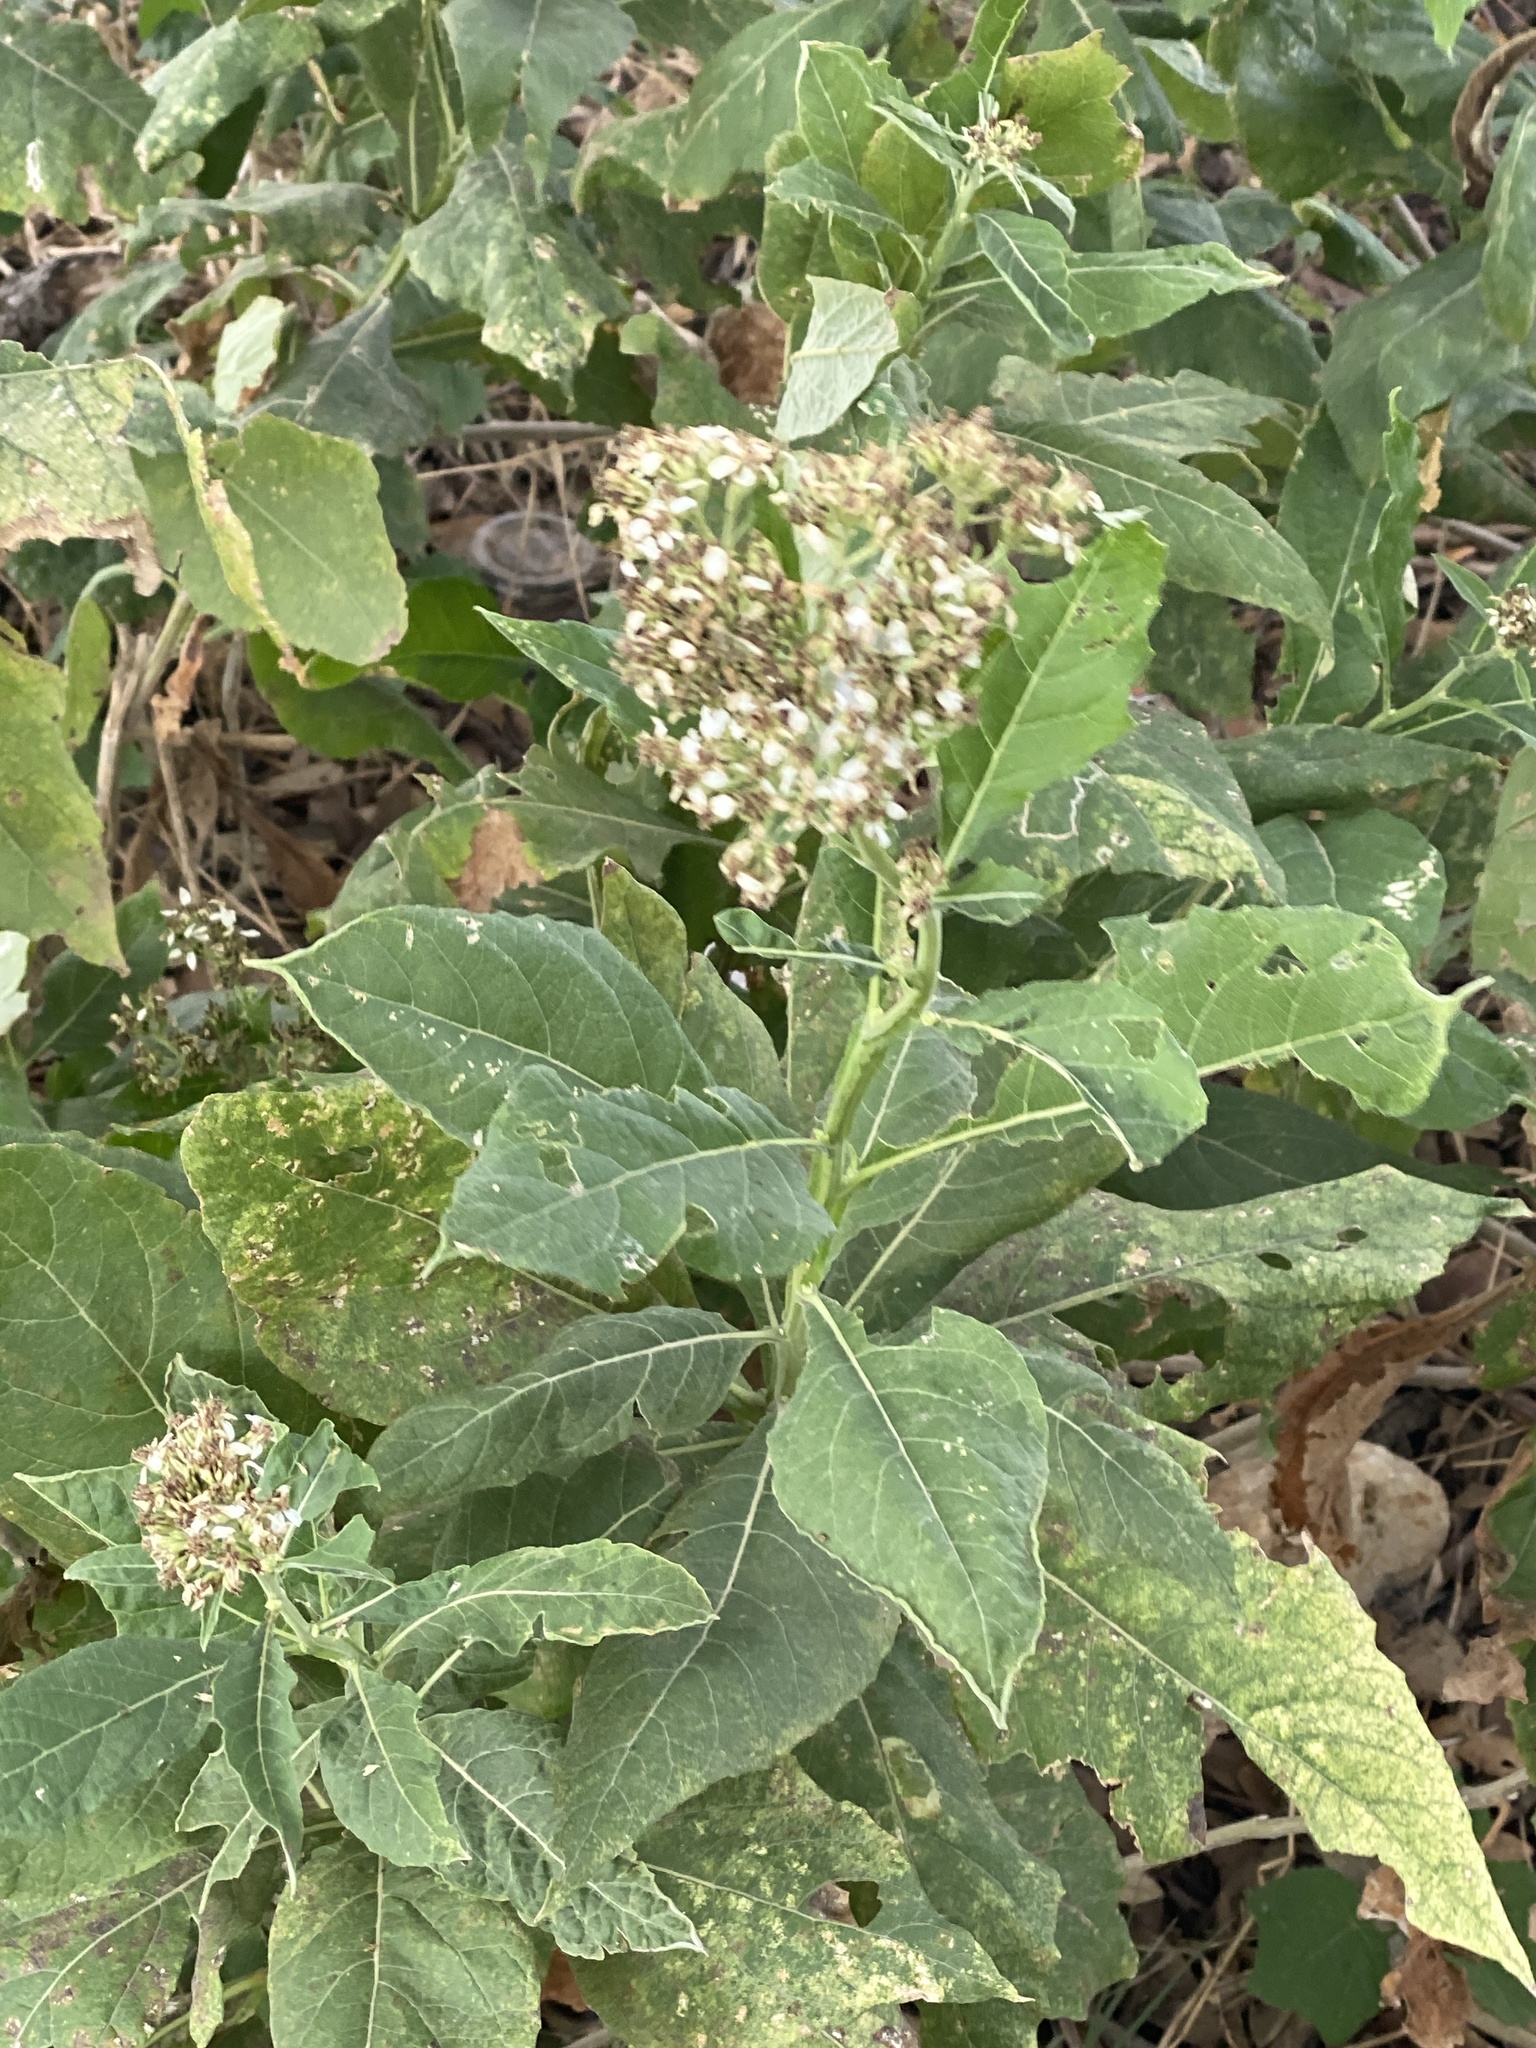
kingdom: Plantae
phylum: Tracheophyta
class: Magnoliopsida
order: Asterales
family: Asteraceae
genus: Verbesina
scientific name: Verbesina virginica
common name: Frostweed
